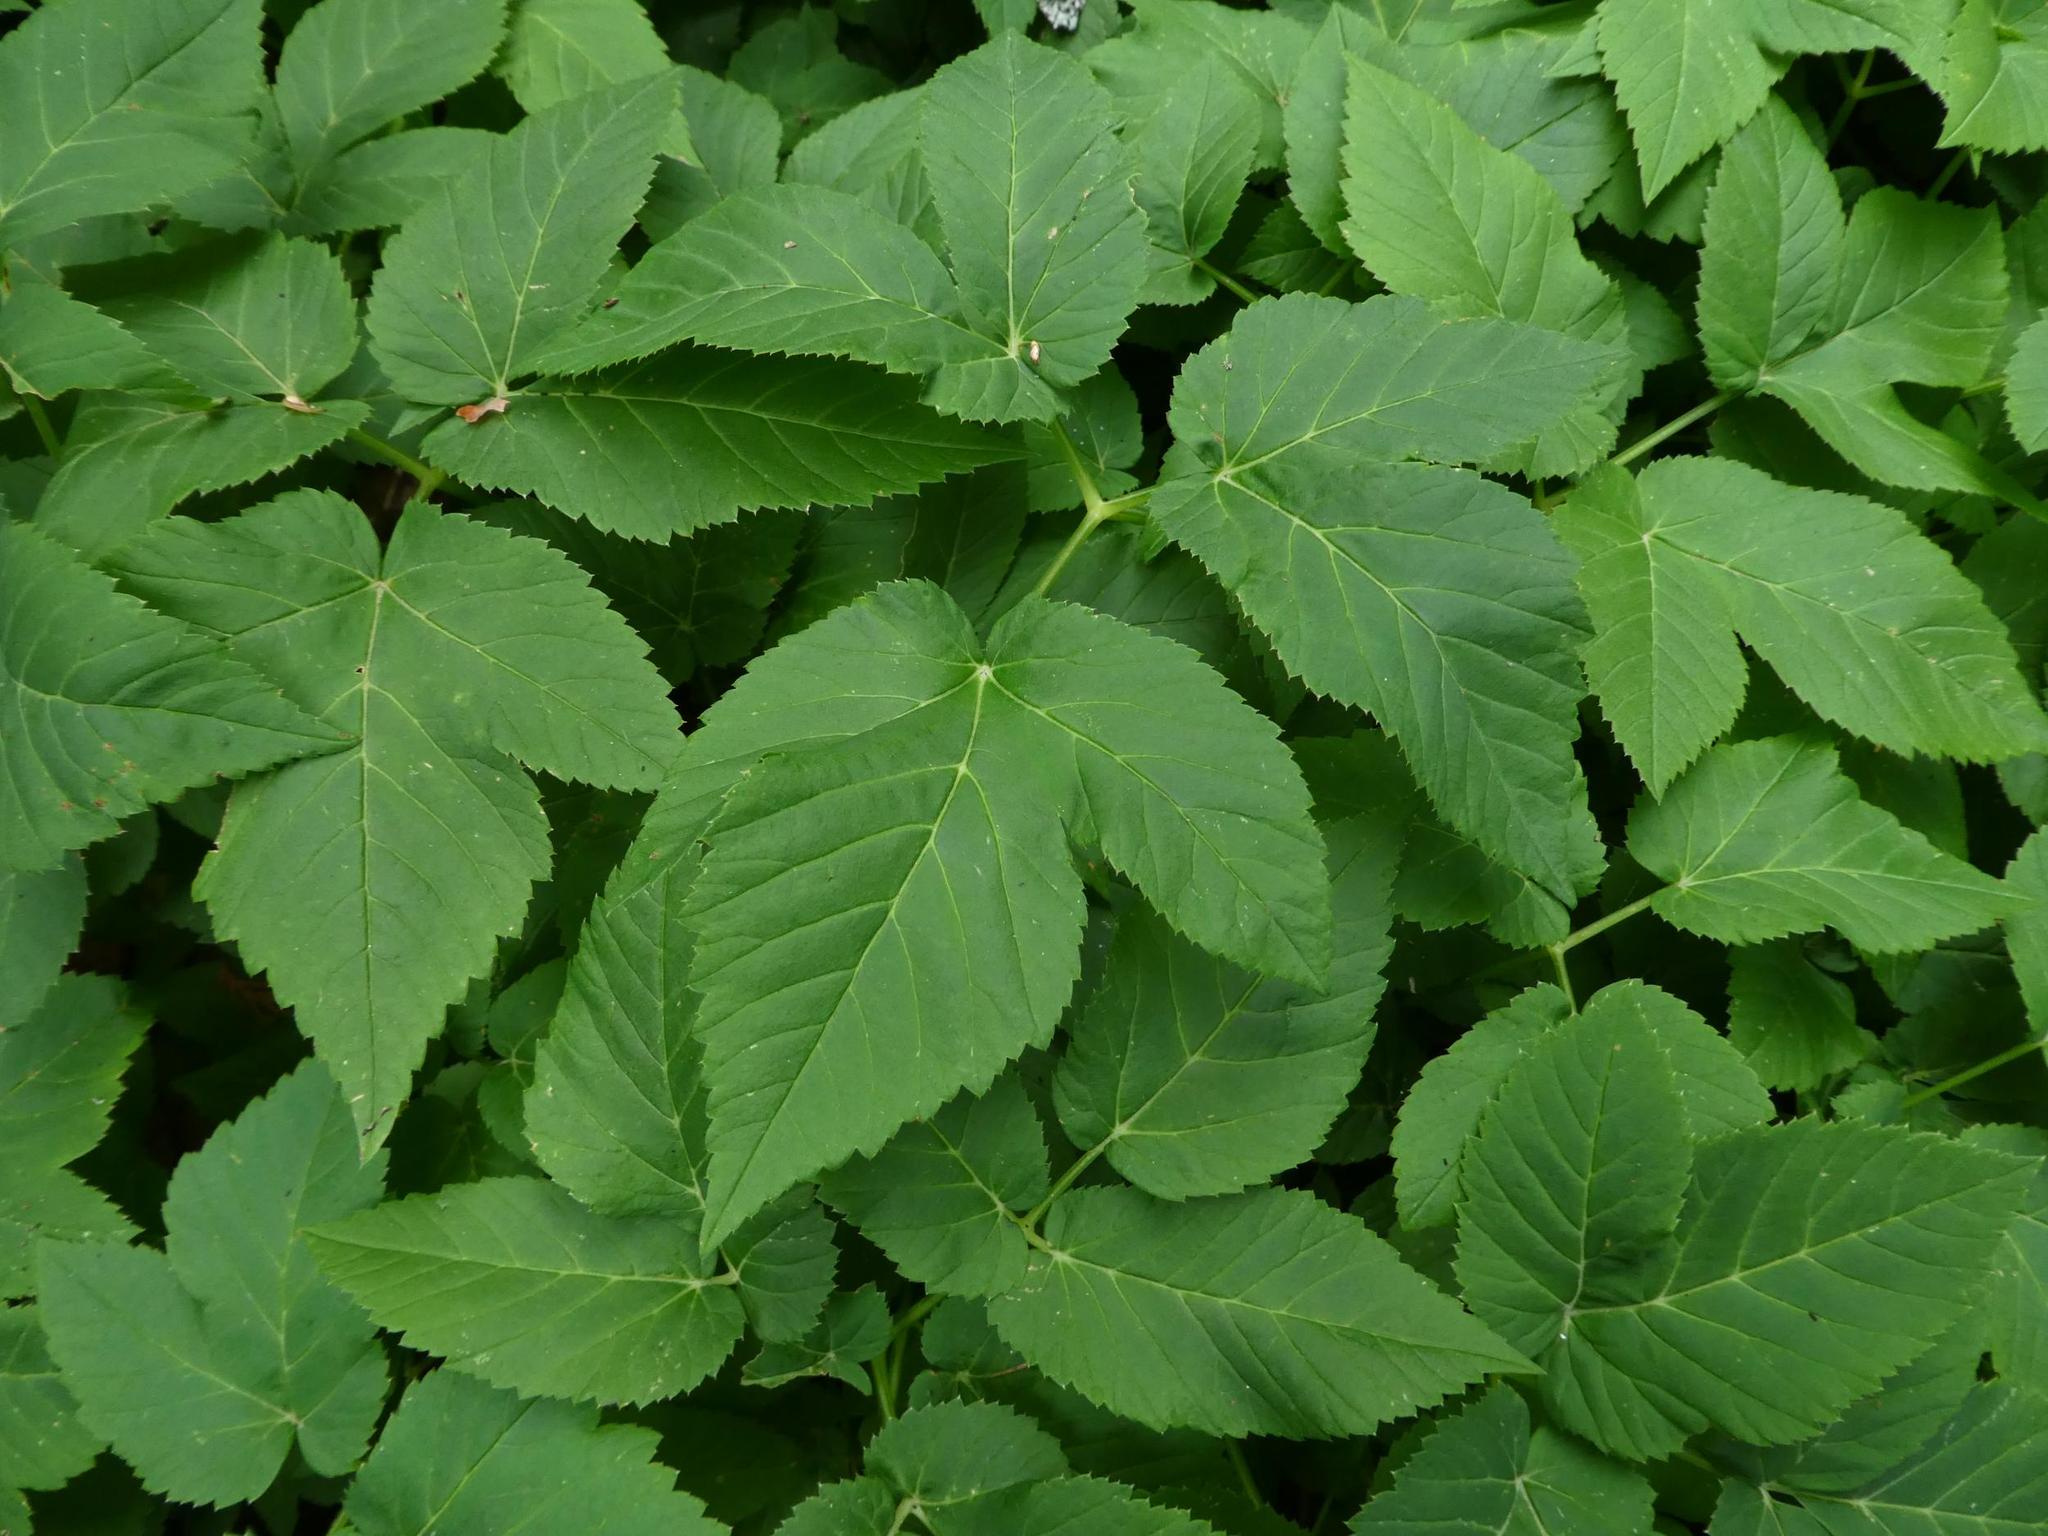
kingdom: Plantae
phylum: Tracheophyta
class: Magnoliopsida
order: Apiales
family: Apiaceae
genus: Aegopodium
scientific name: Aegopodium podagraria
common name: Ground-elder
